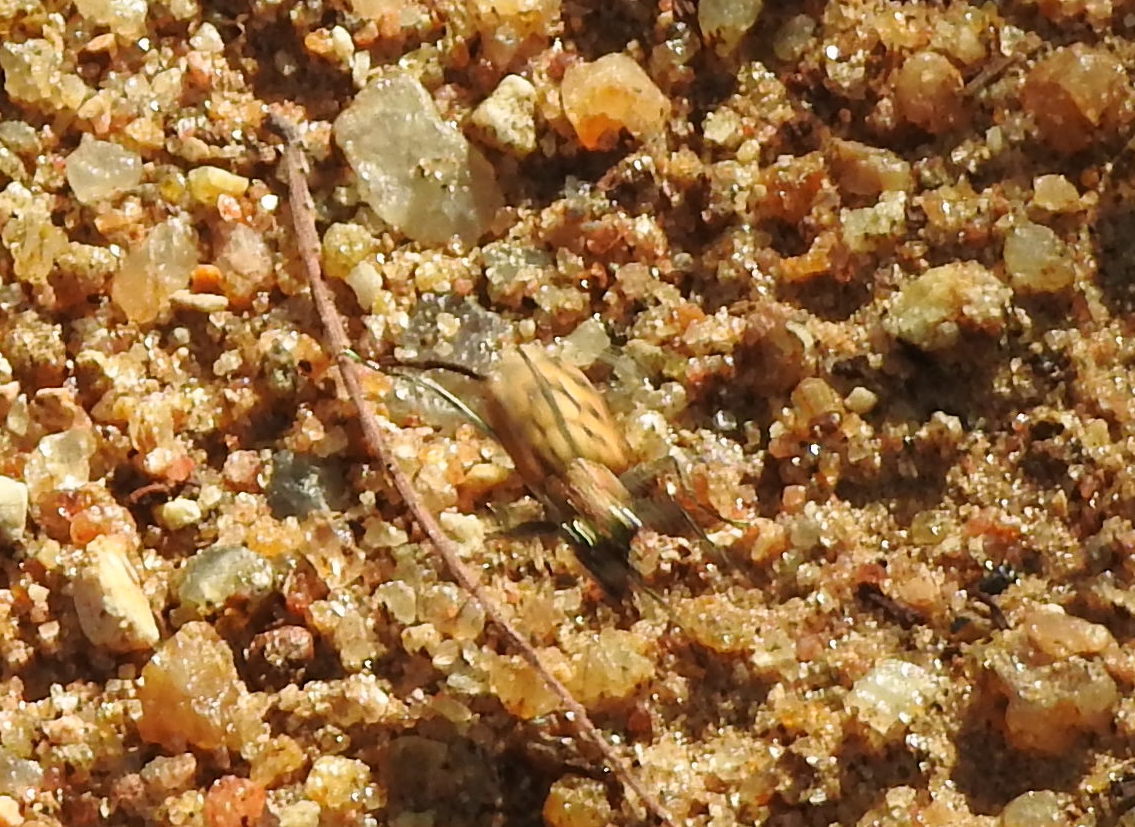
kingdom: Animalia
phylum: Arthropoda
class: Insecta
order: Coleoptera
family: Carabidae
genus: Lophyra
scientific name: Lophyra catena
